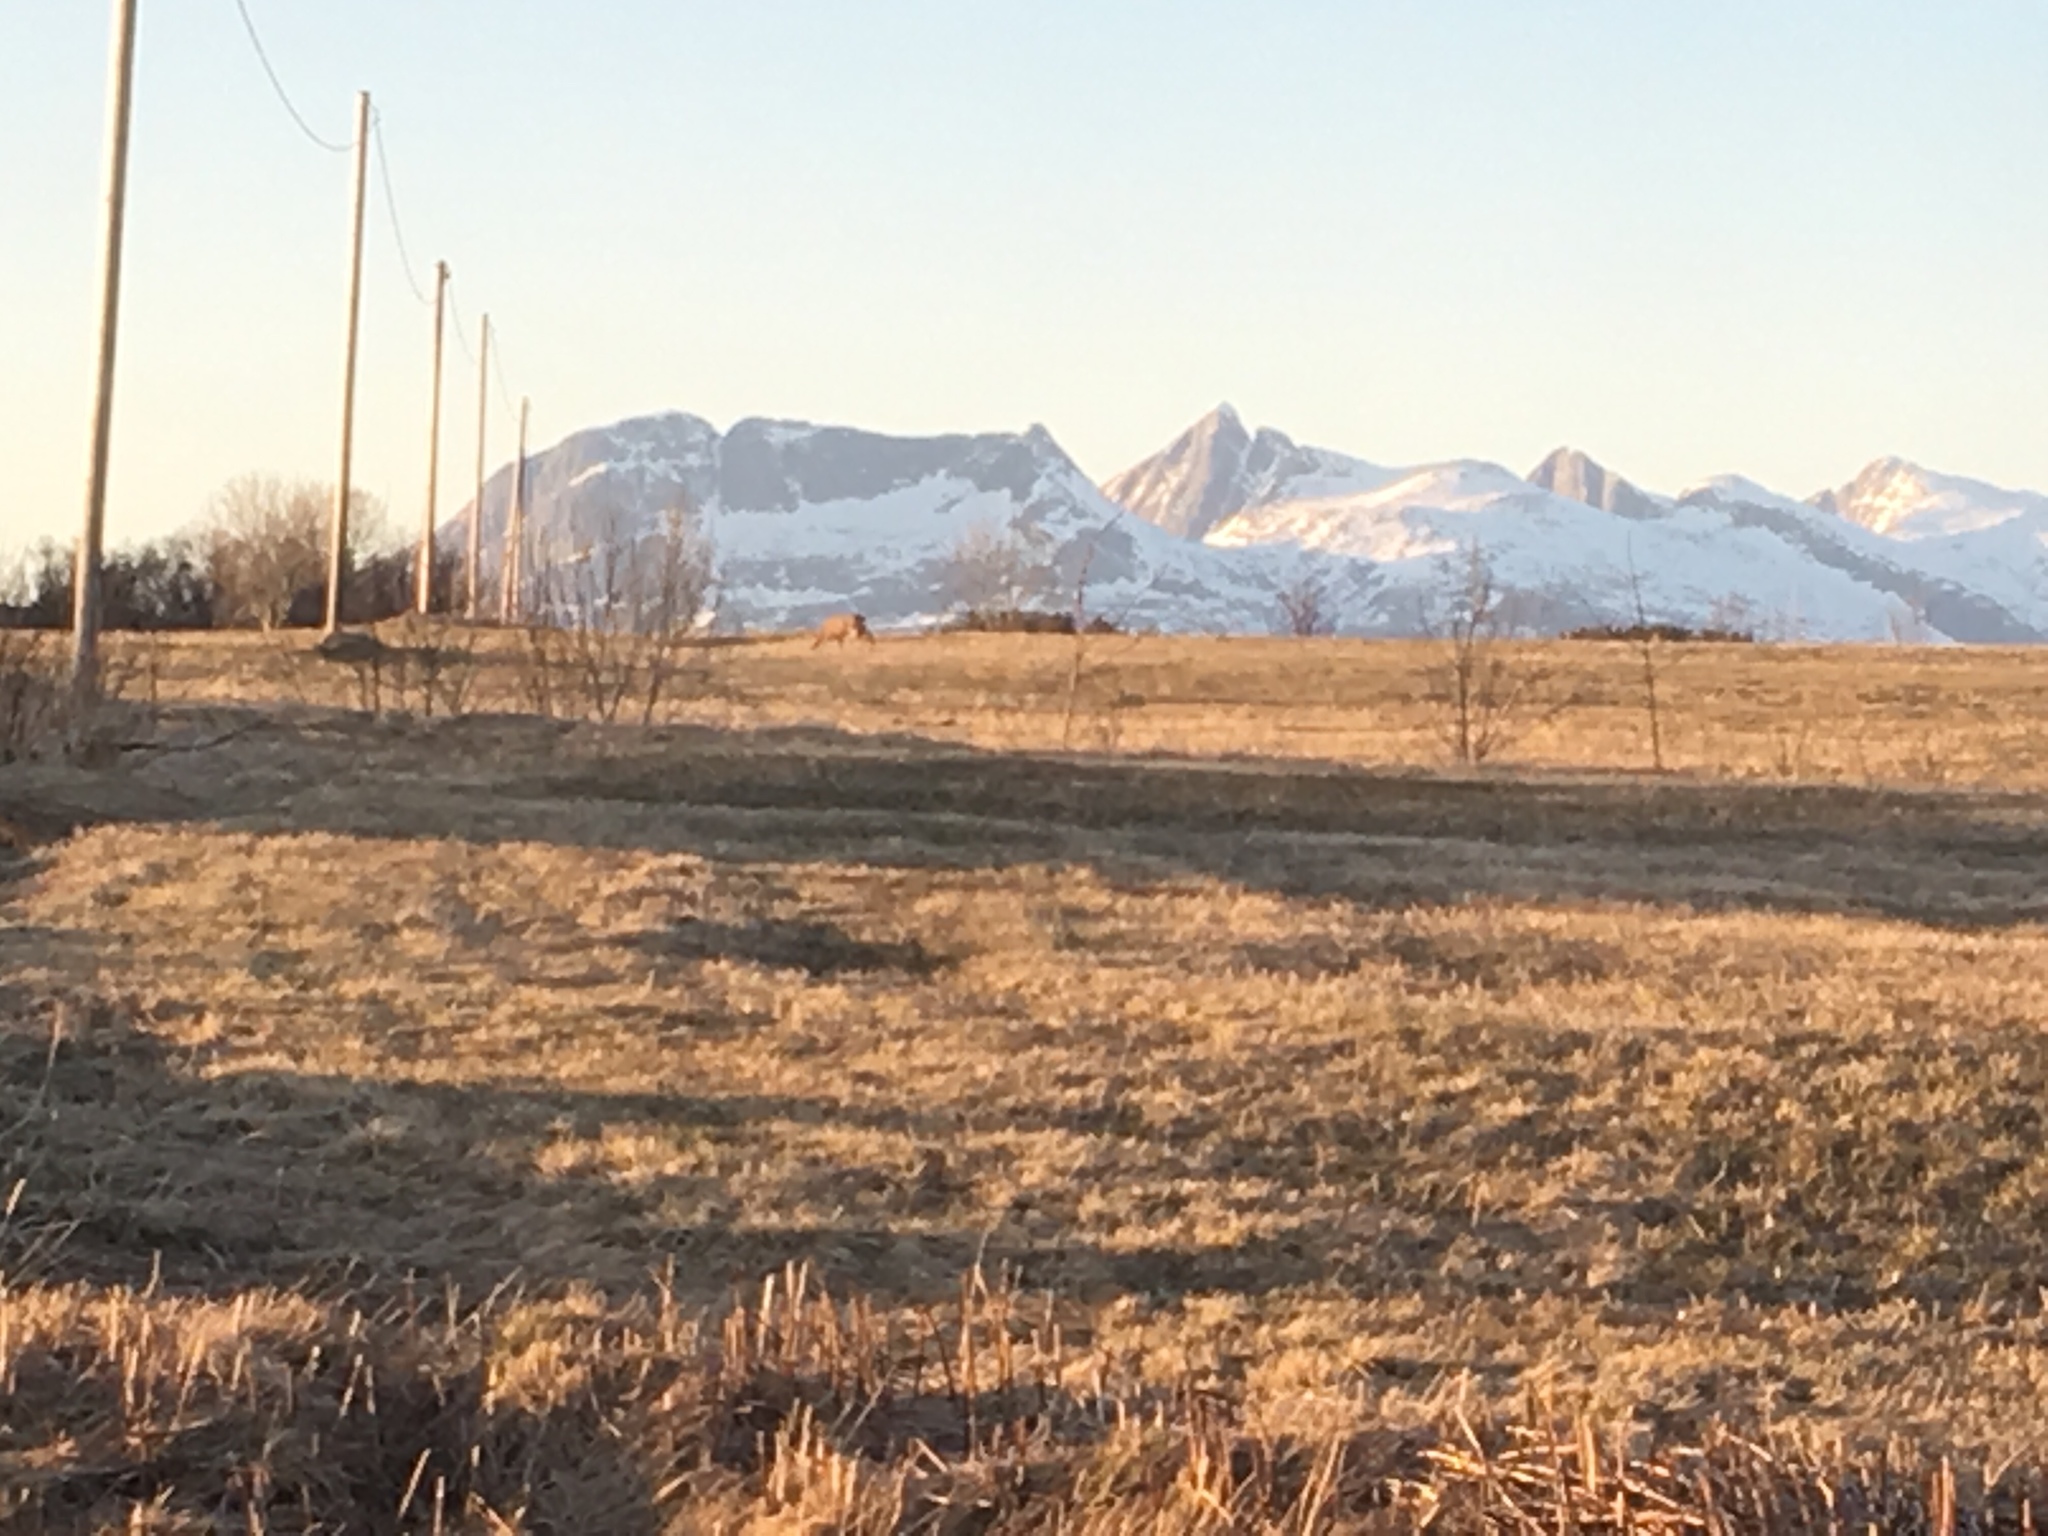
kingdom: Animalia
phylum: Chordata
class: Mammalia
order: Artiodactyla
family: Cervidae
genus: Capreolus
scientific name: Capreolus capreolus
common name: Western roe deer
